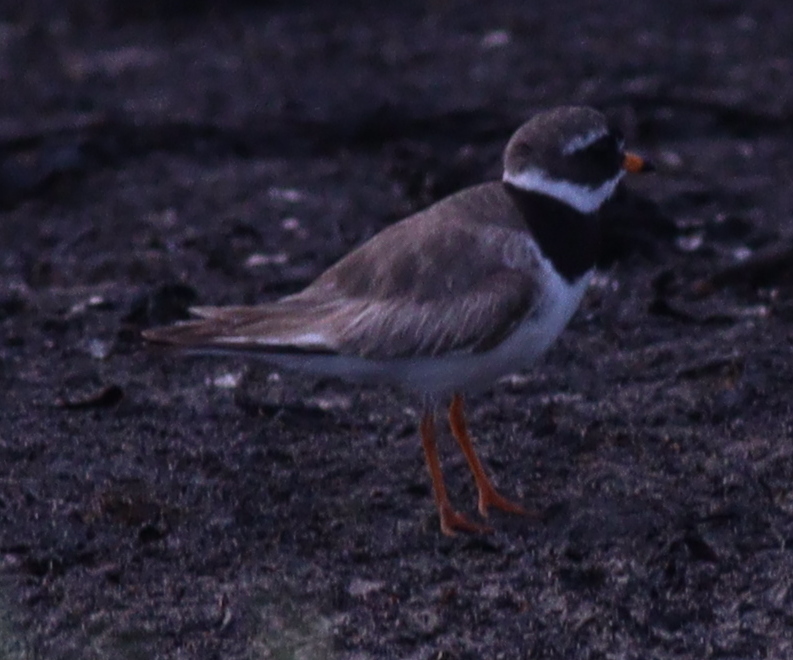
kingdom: Animalia
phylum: Chordata
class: Aves
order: Charadriiformes
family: Charadriidae
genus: Charadrius
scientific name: Charadrius hiaticula
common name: Common ringed plover
